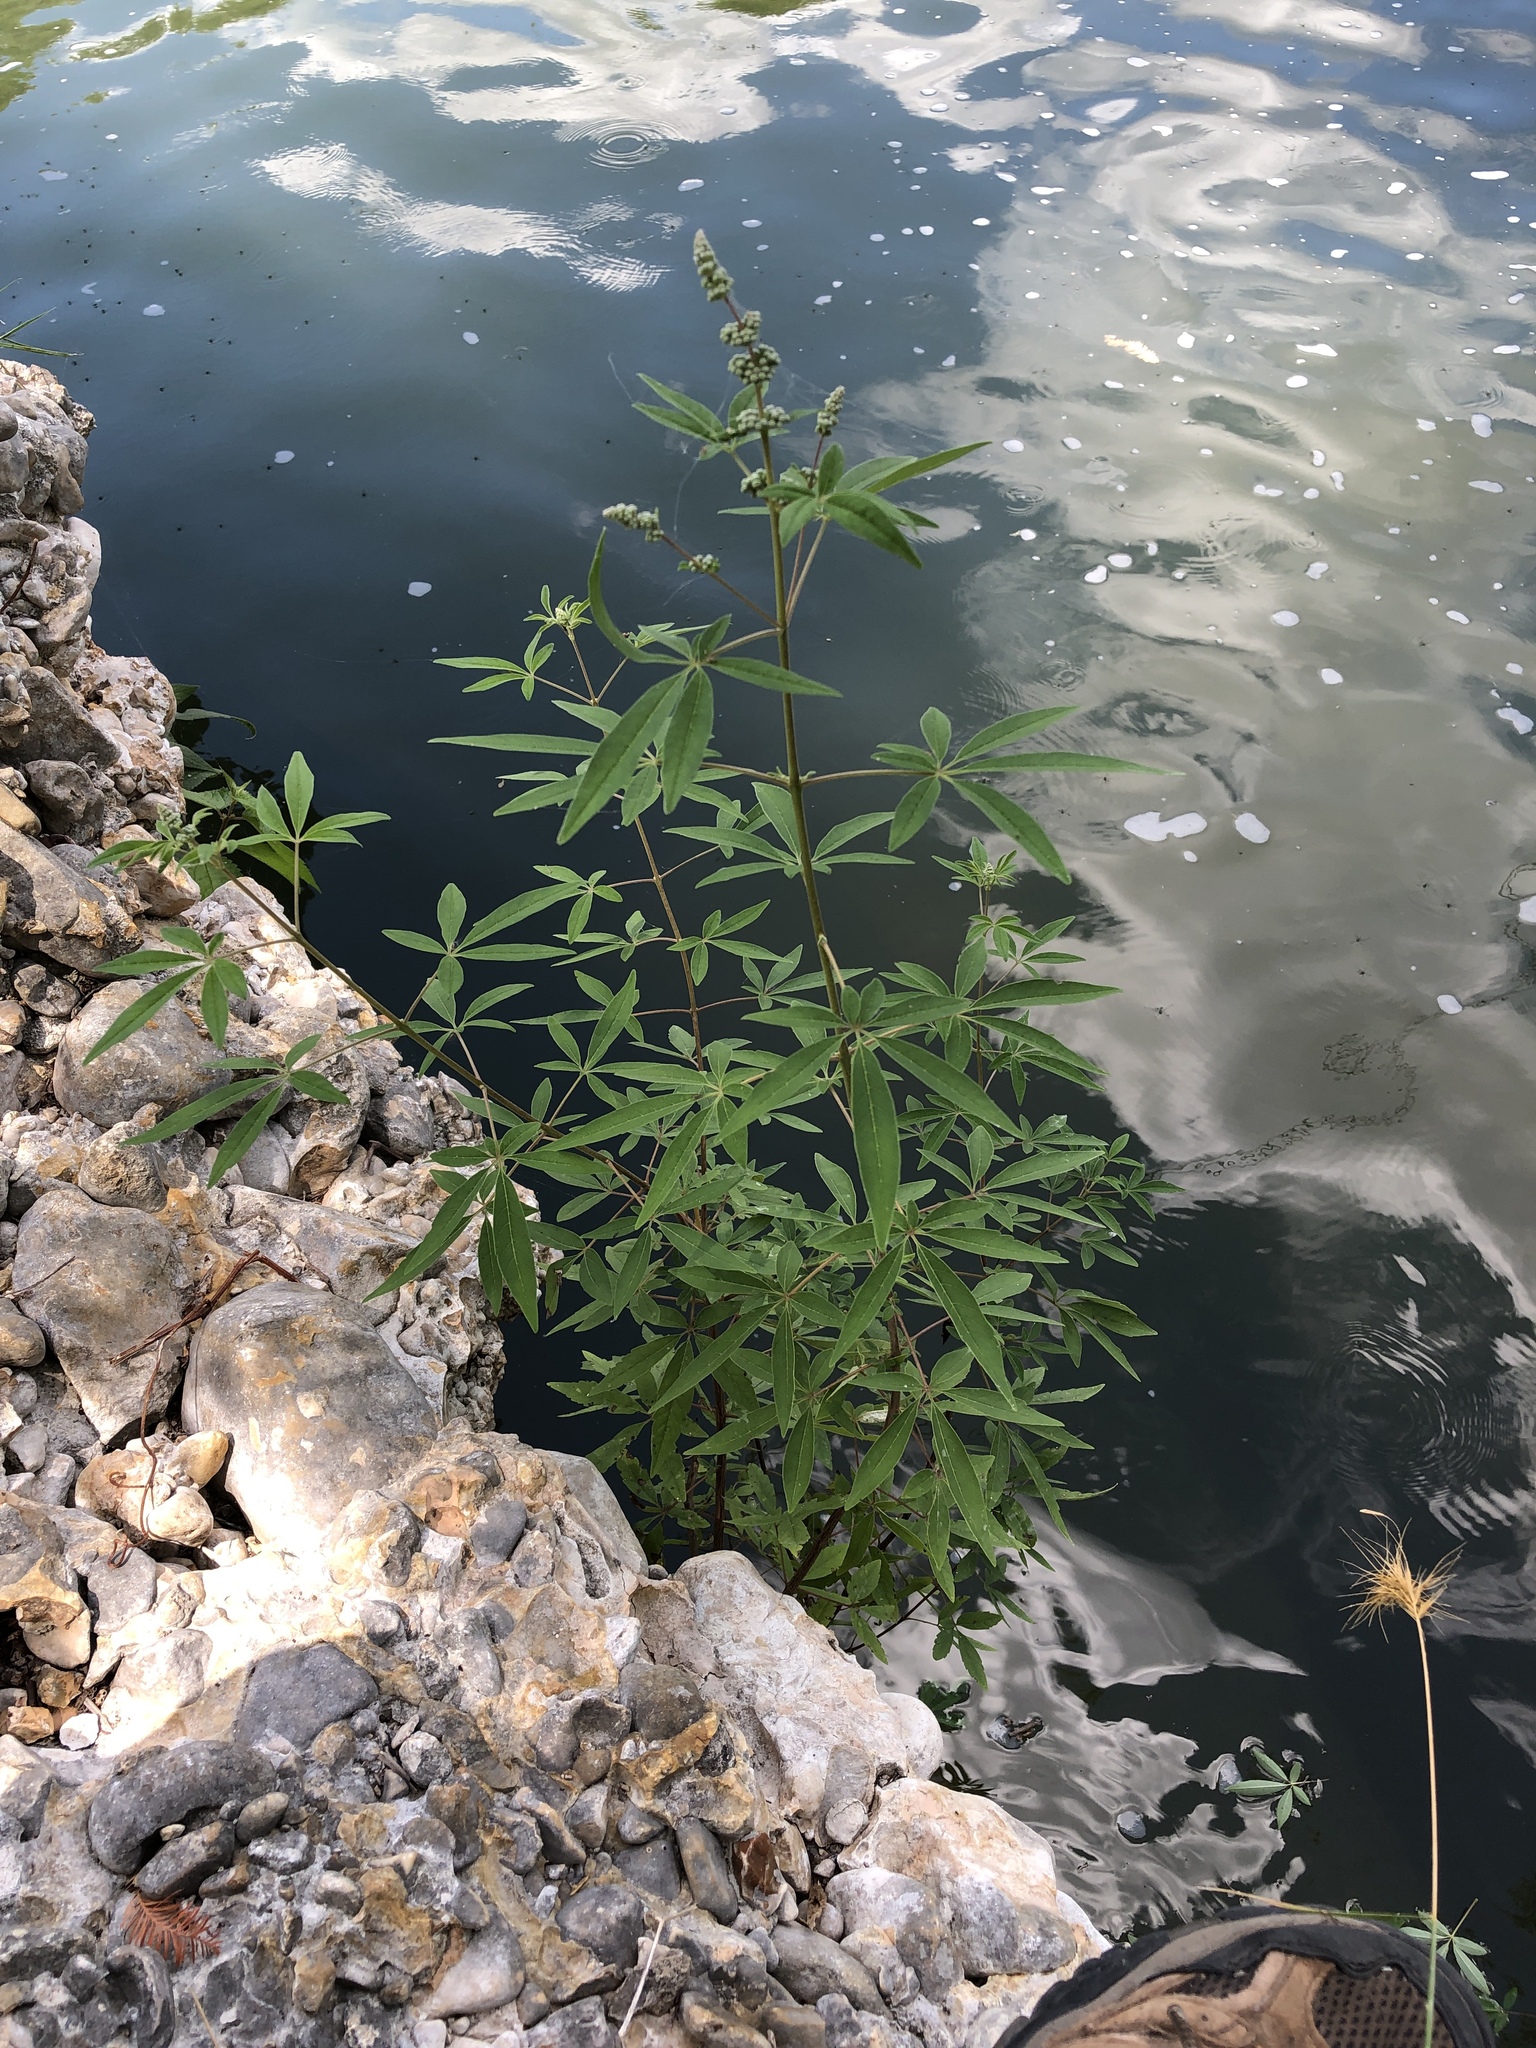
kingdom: Plantae
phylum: Tracheophyta
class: Magnoliopsida
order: Lamiales
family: Lamiaceae
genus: Vitex
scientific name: Vitex agnus-castus
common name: Chasteberry
